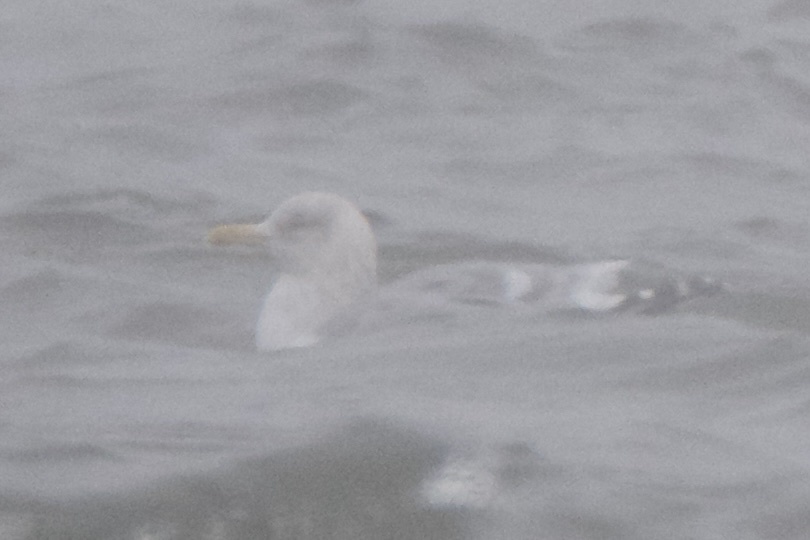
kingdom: Animalia
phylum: Chordata
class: Aves
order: Charadriiformes
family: Laridae
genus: Larus
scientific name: Larus glaucoides
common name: Iceland gull
